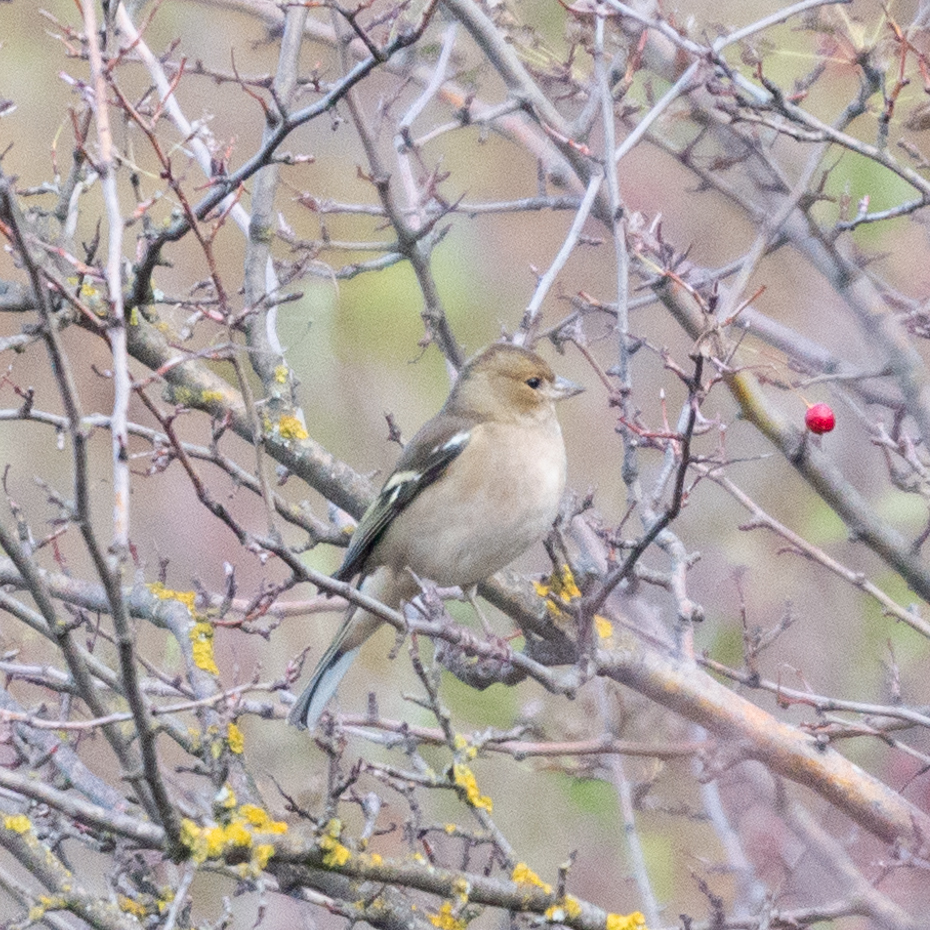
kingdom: Animalia
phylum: Chordata
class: Aves
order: Passeriformes
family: Fringillidae
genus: Fringilla
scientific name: Fringilla coelebs
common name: Common chaffinch
